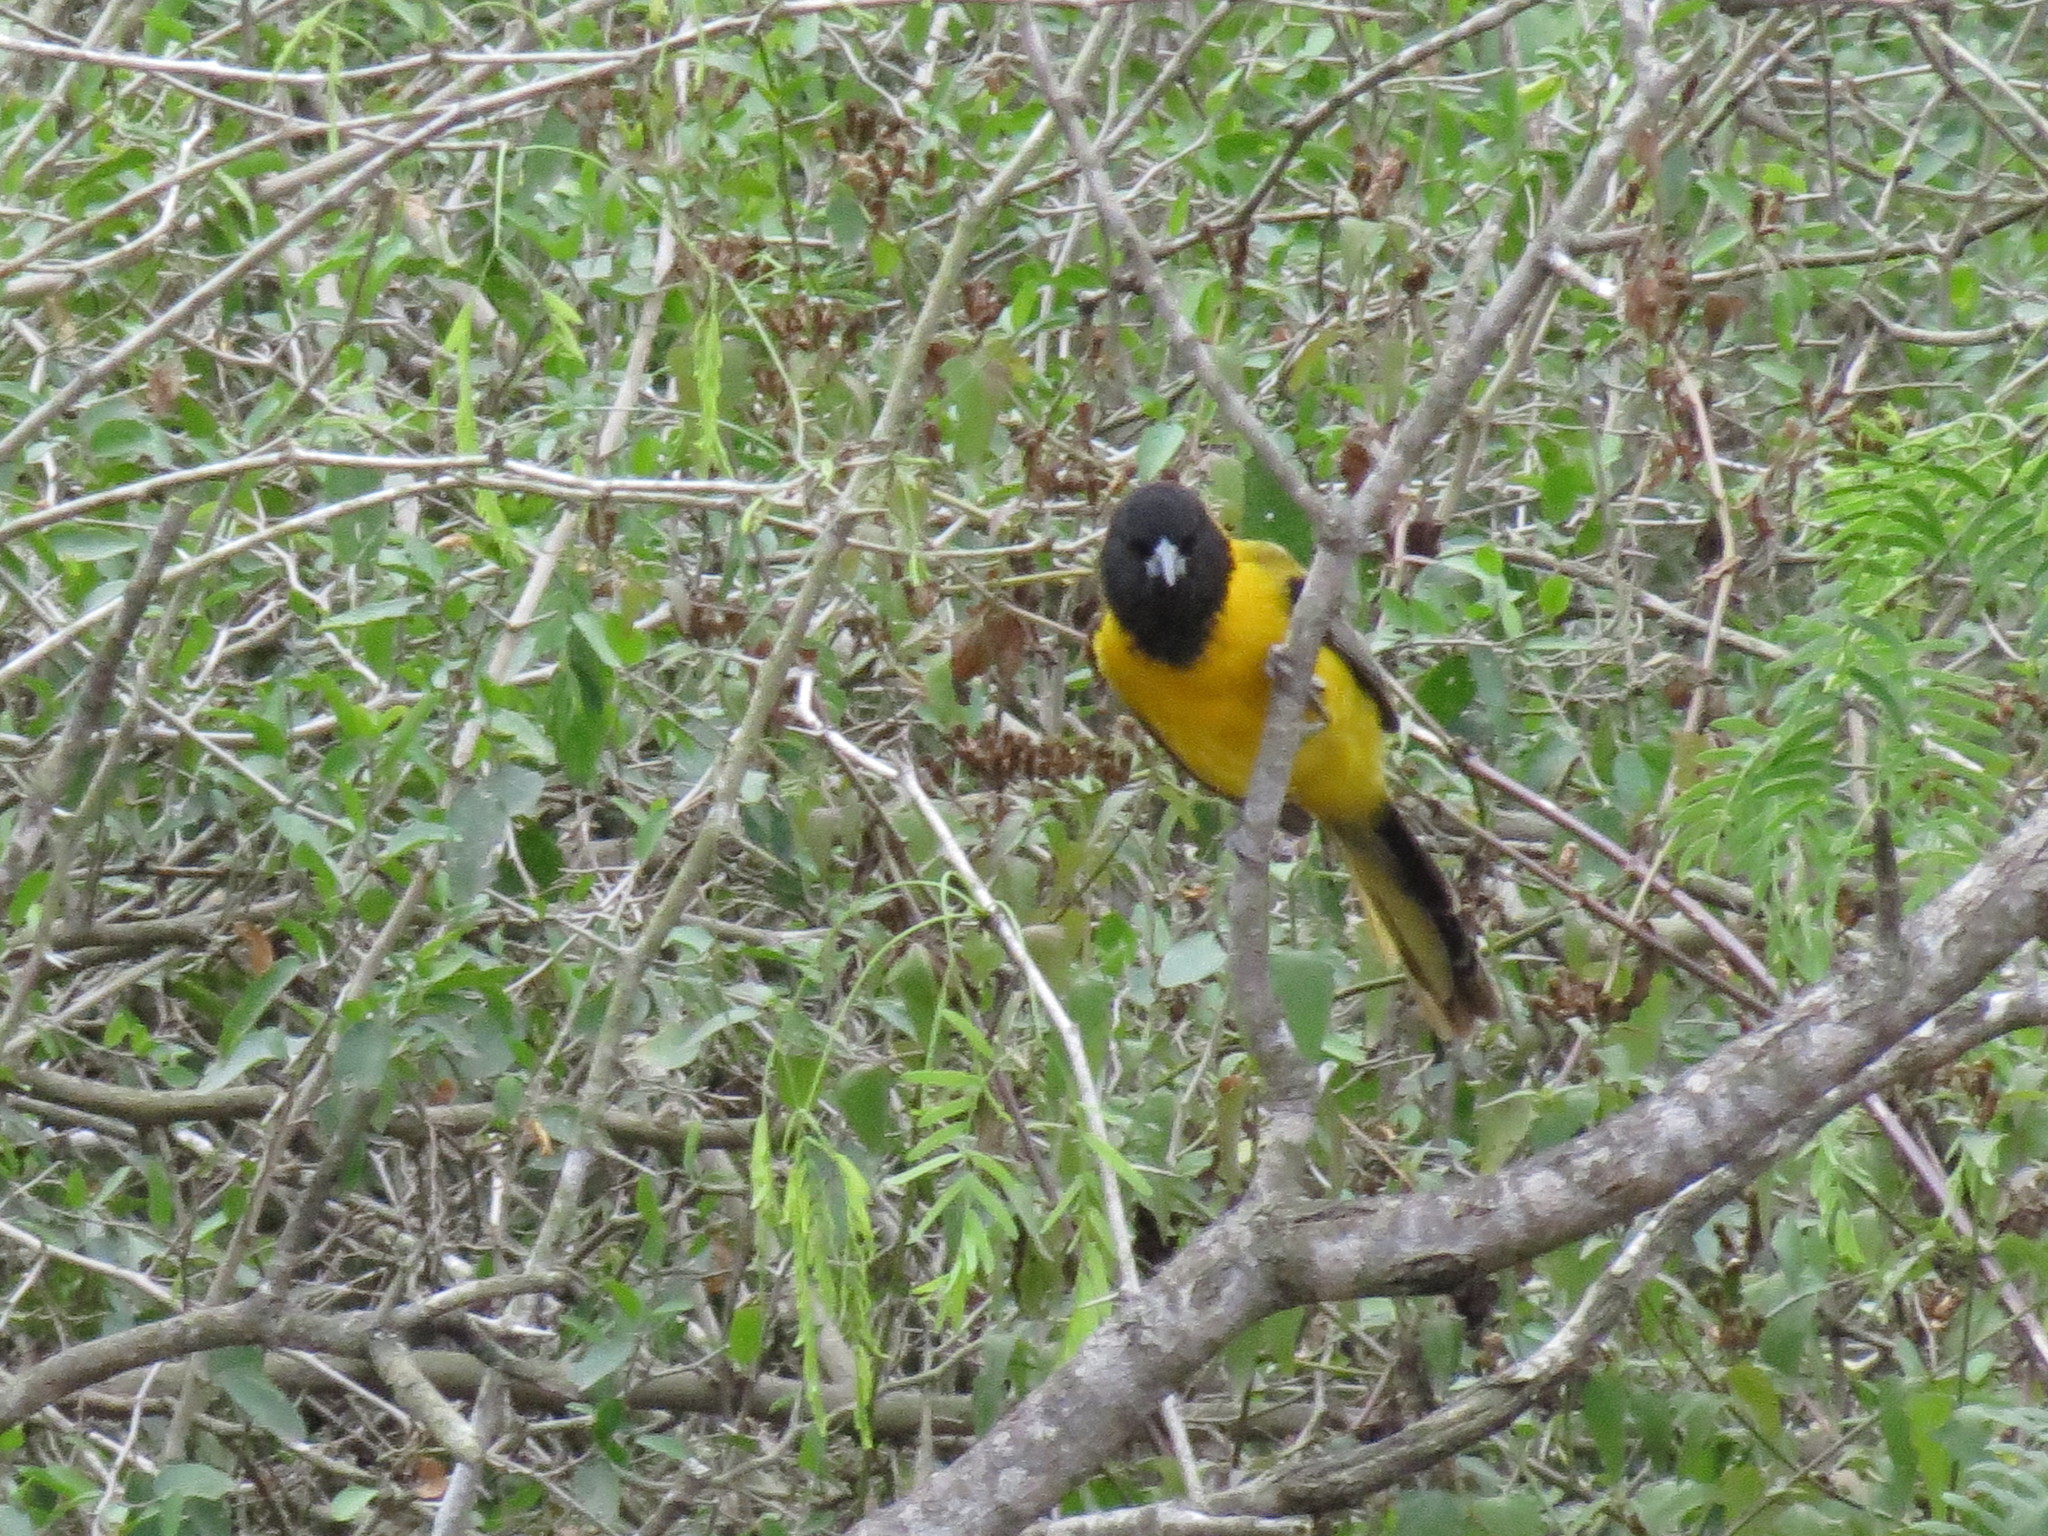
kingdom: Animalia
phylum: Chordata
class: Aves
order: Passeriformes
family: Icteridae
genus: Icterus
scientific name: Icterus graduacauda
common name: Audubon's oriole
